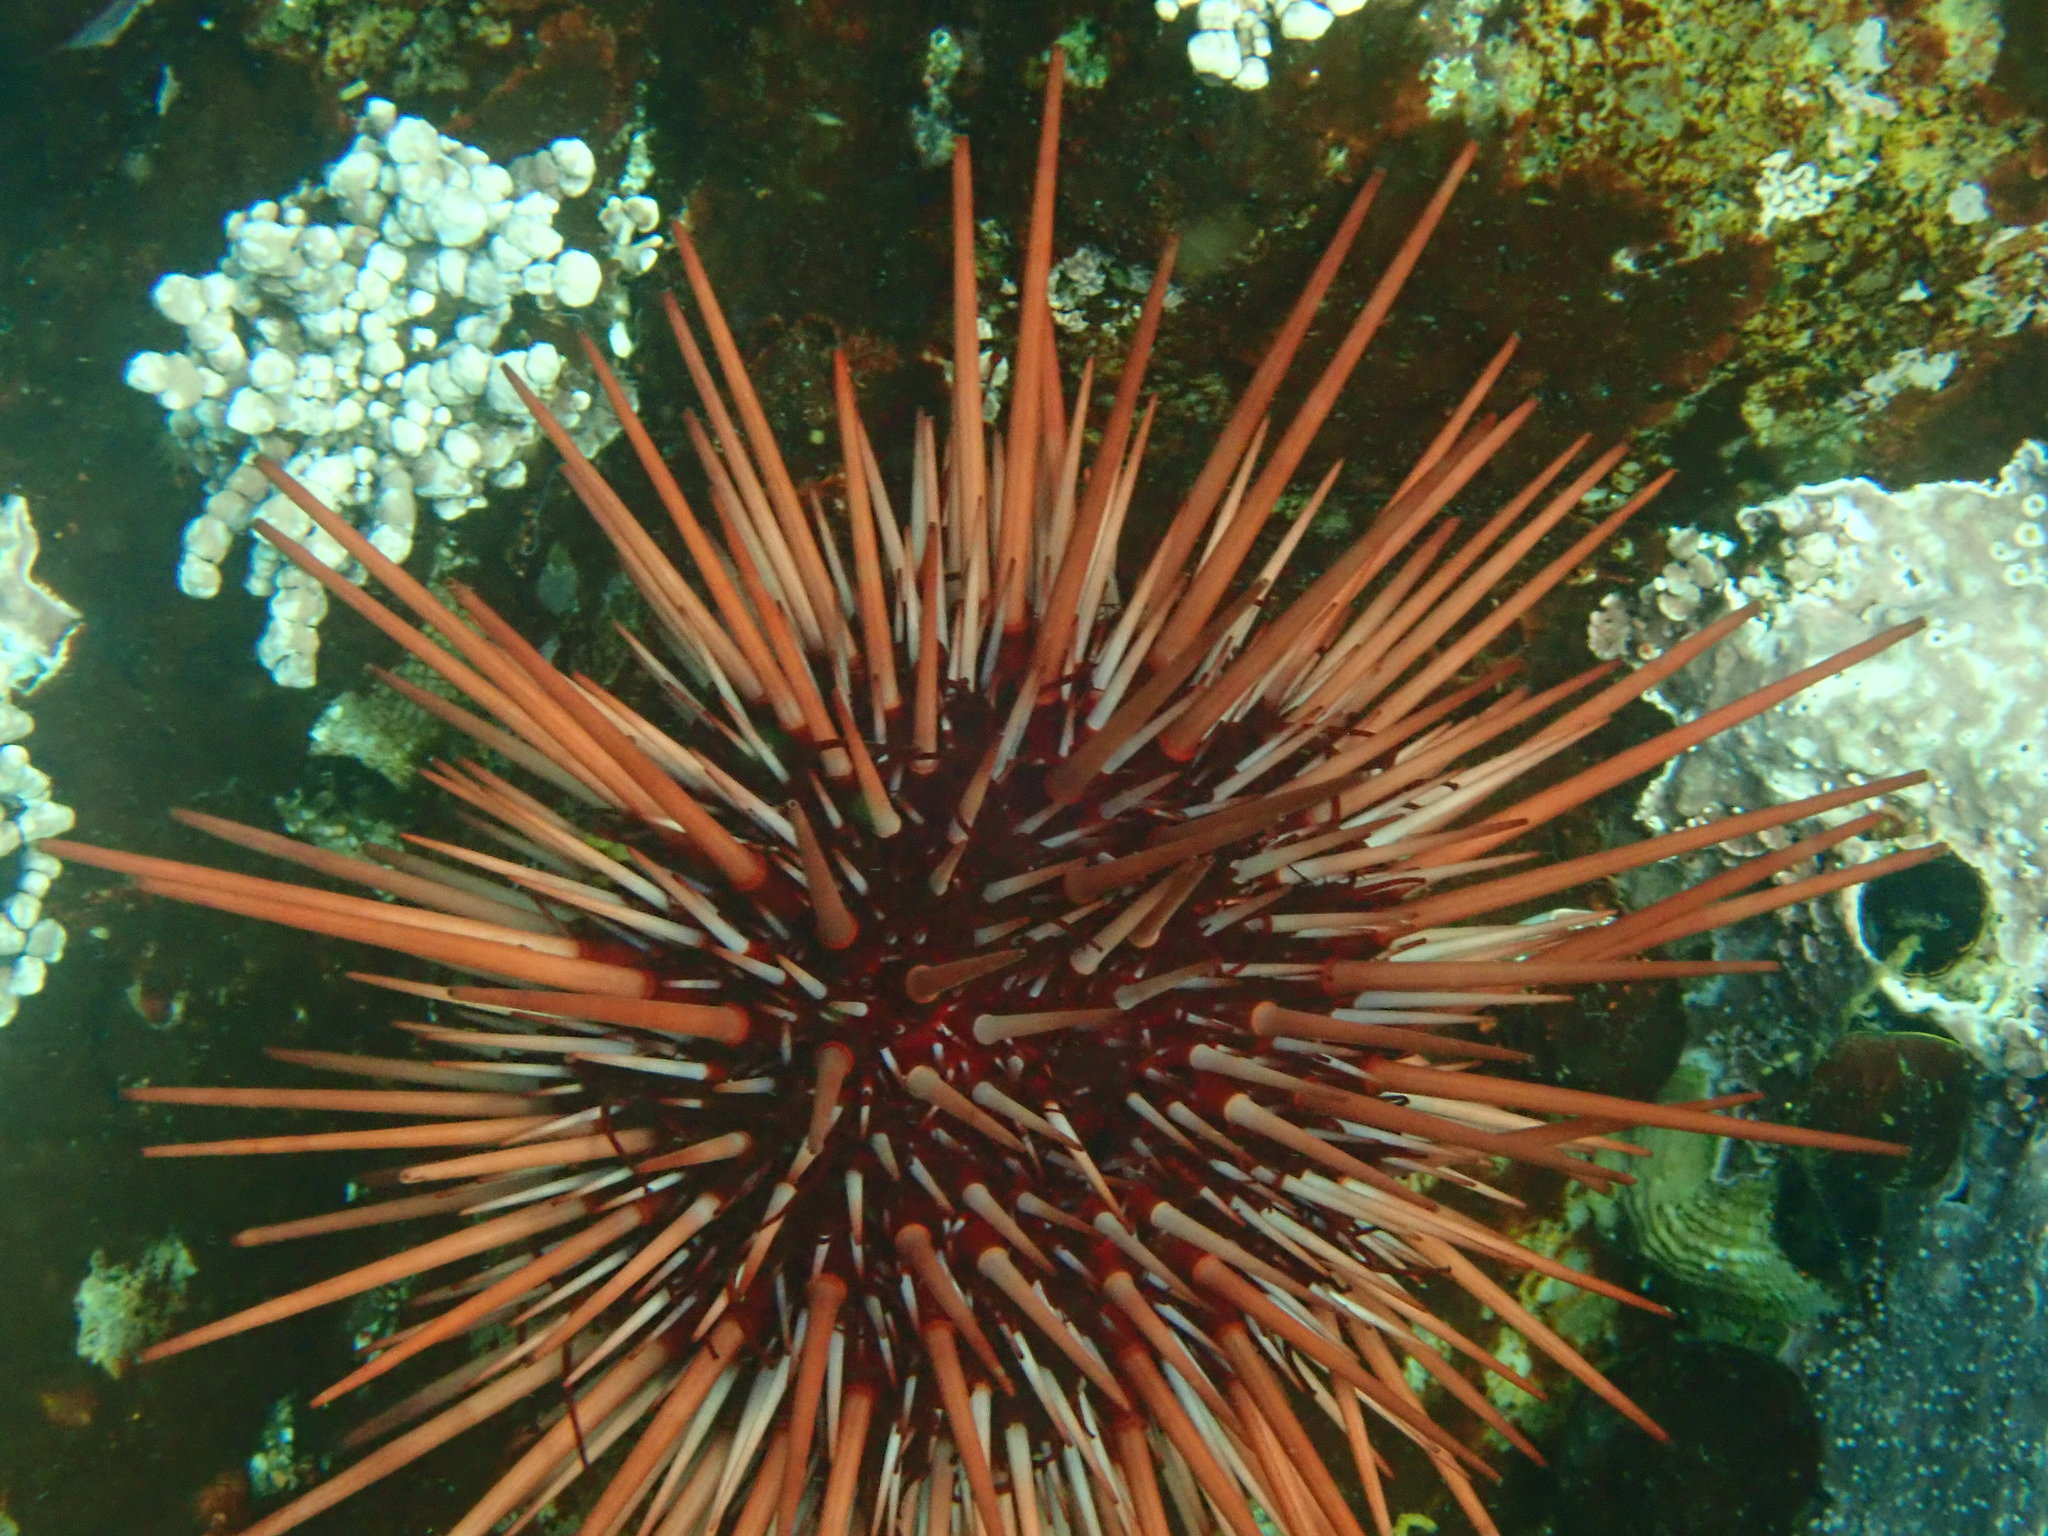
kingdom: Animalia
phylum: Echinodermata
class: Echinoidea
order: Camarodonta
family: Strongylocentrotidae
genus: Mesocentrotus
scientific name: Mesocentrotus franciscanus
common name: Red sea urchin
